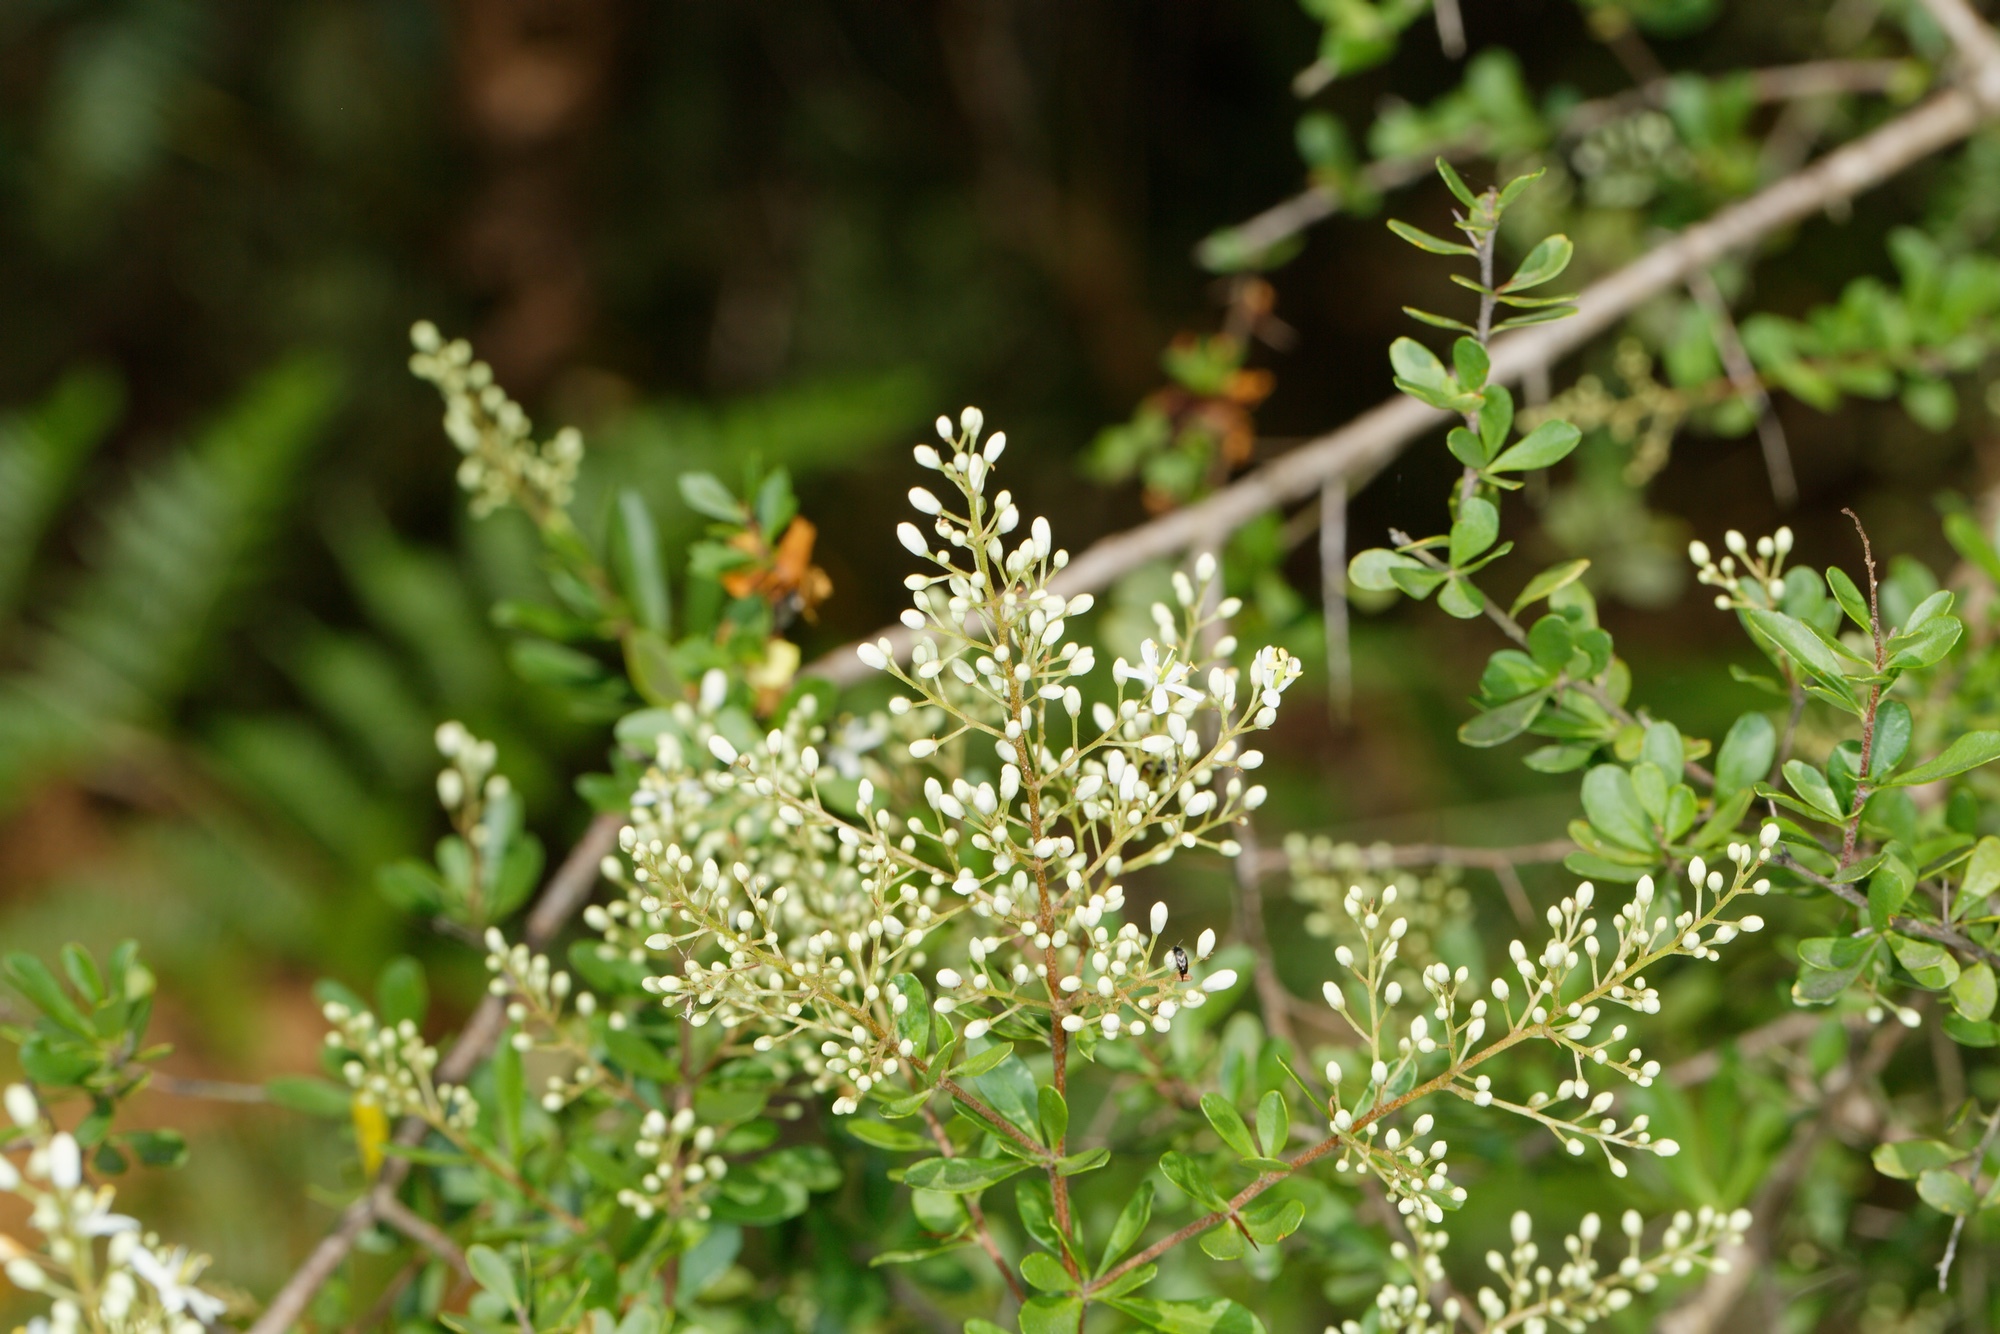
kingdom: Plantae
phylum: Tracheophyta
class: Magnoliopsida
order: Apiales
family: Pittosporaceae
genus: Bursaria
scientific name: Bursaria spinosa
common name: Australian blackthorn
